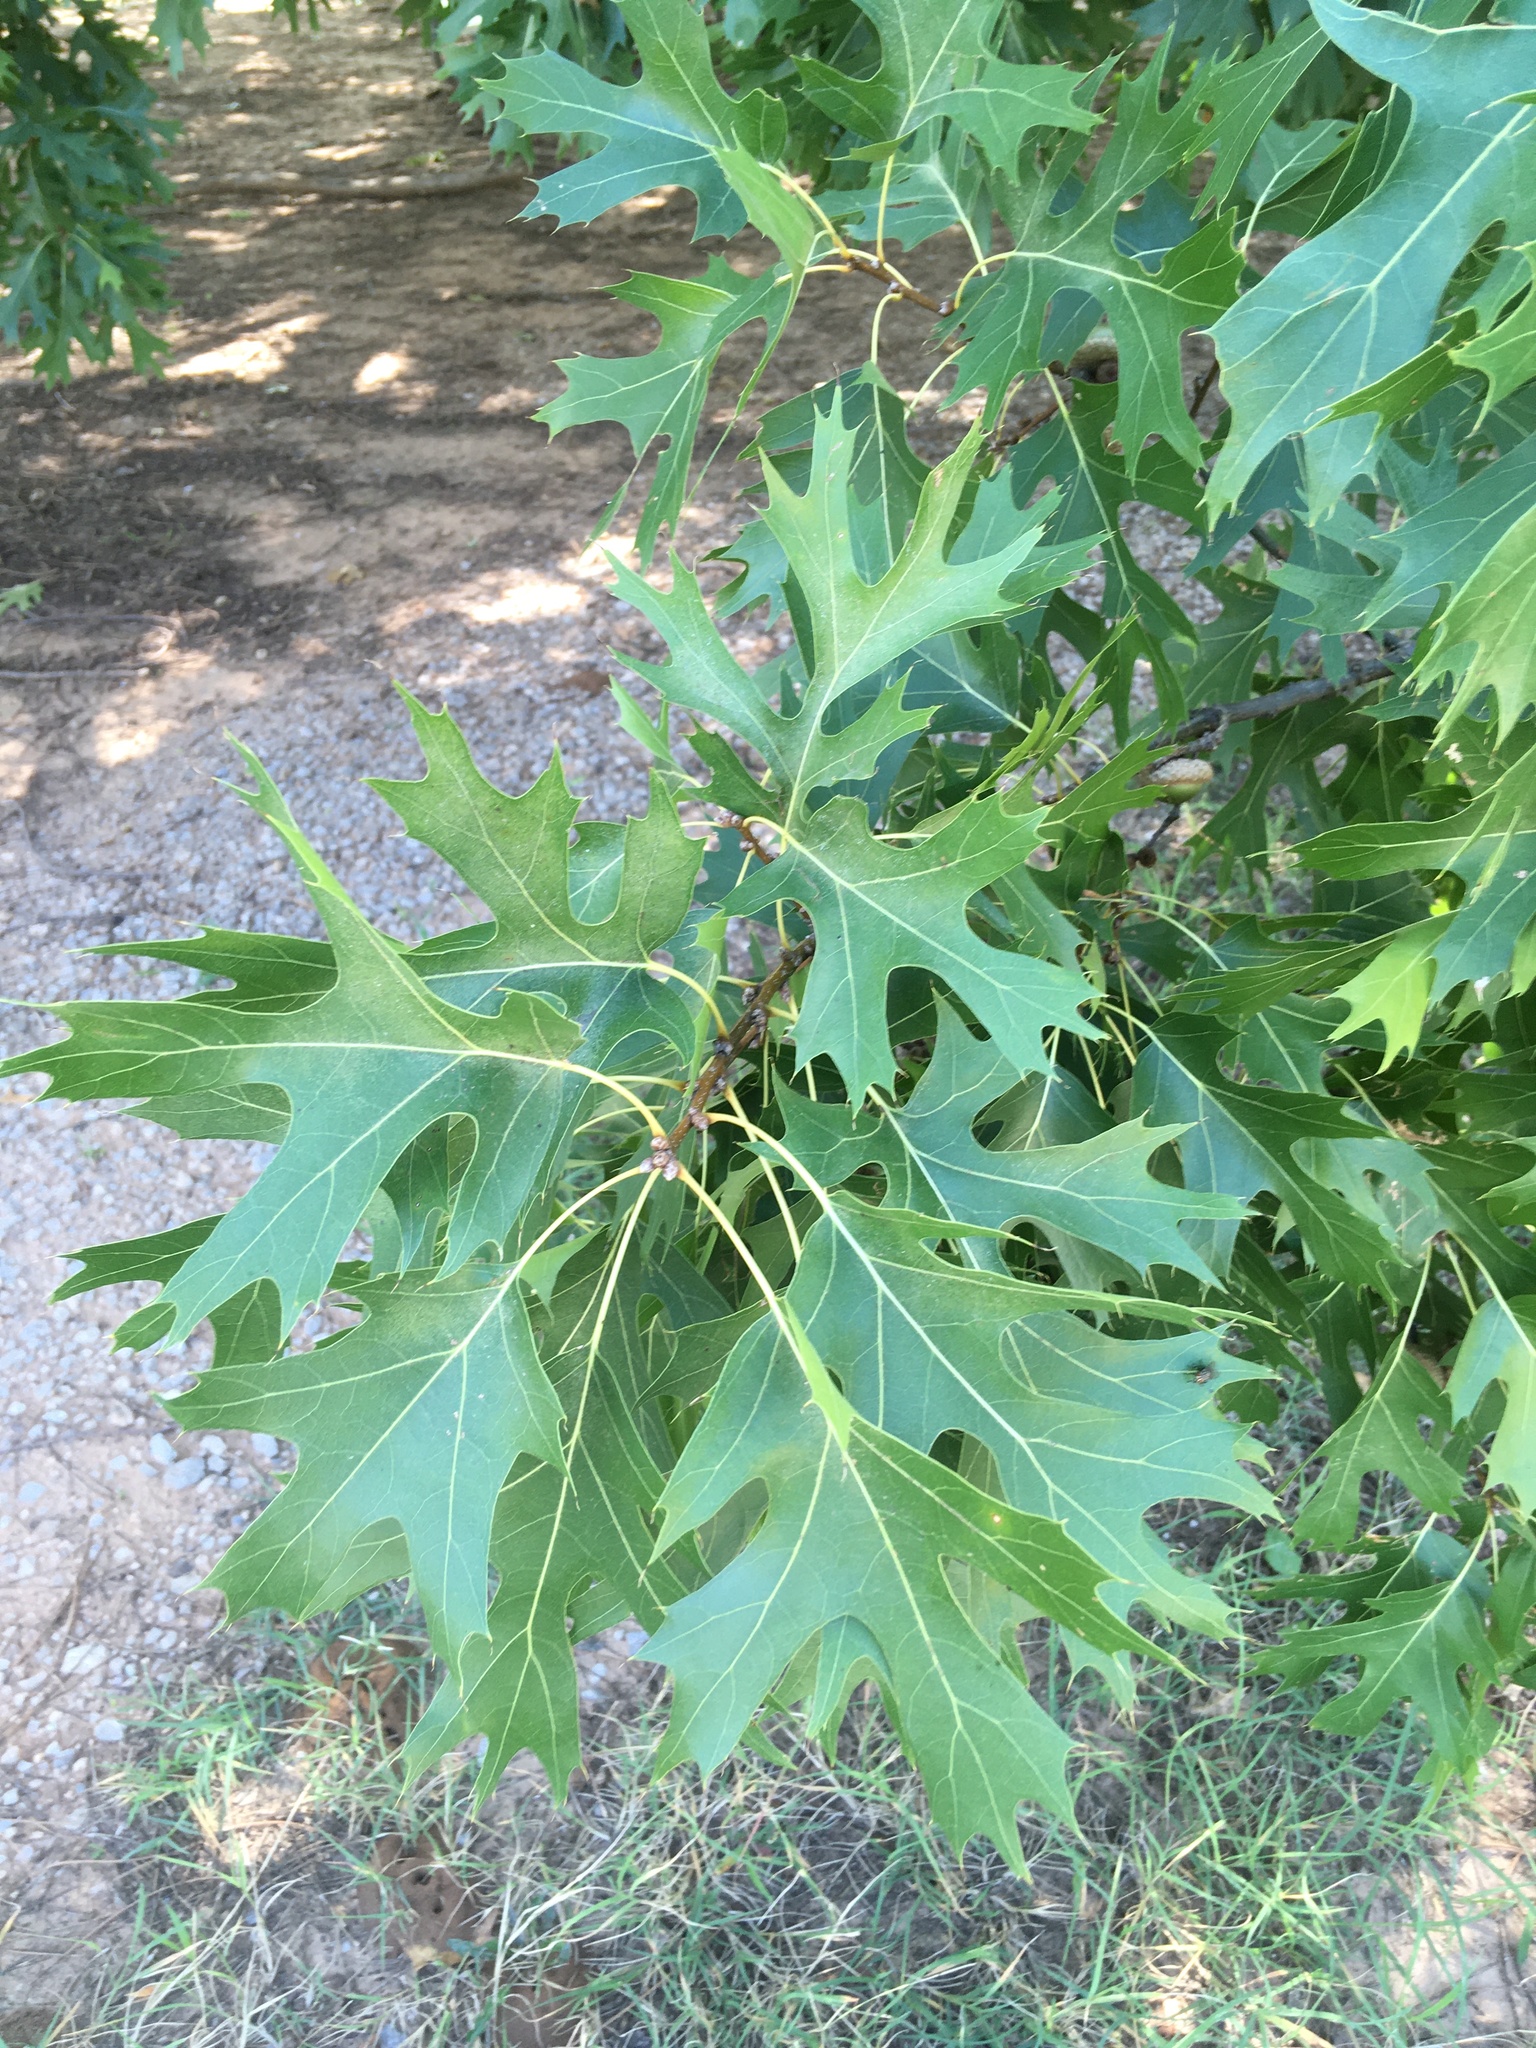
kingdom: Plantae
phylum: Tracheophyta
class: Magnoliopsida
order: Fagales
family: Fagaceae
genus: Quercus
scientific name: Quercus palustris
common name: Pin oak
